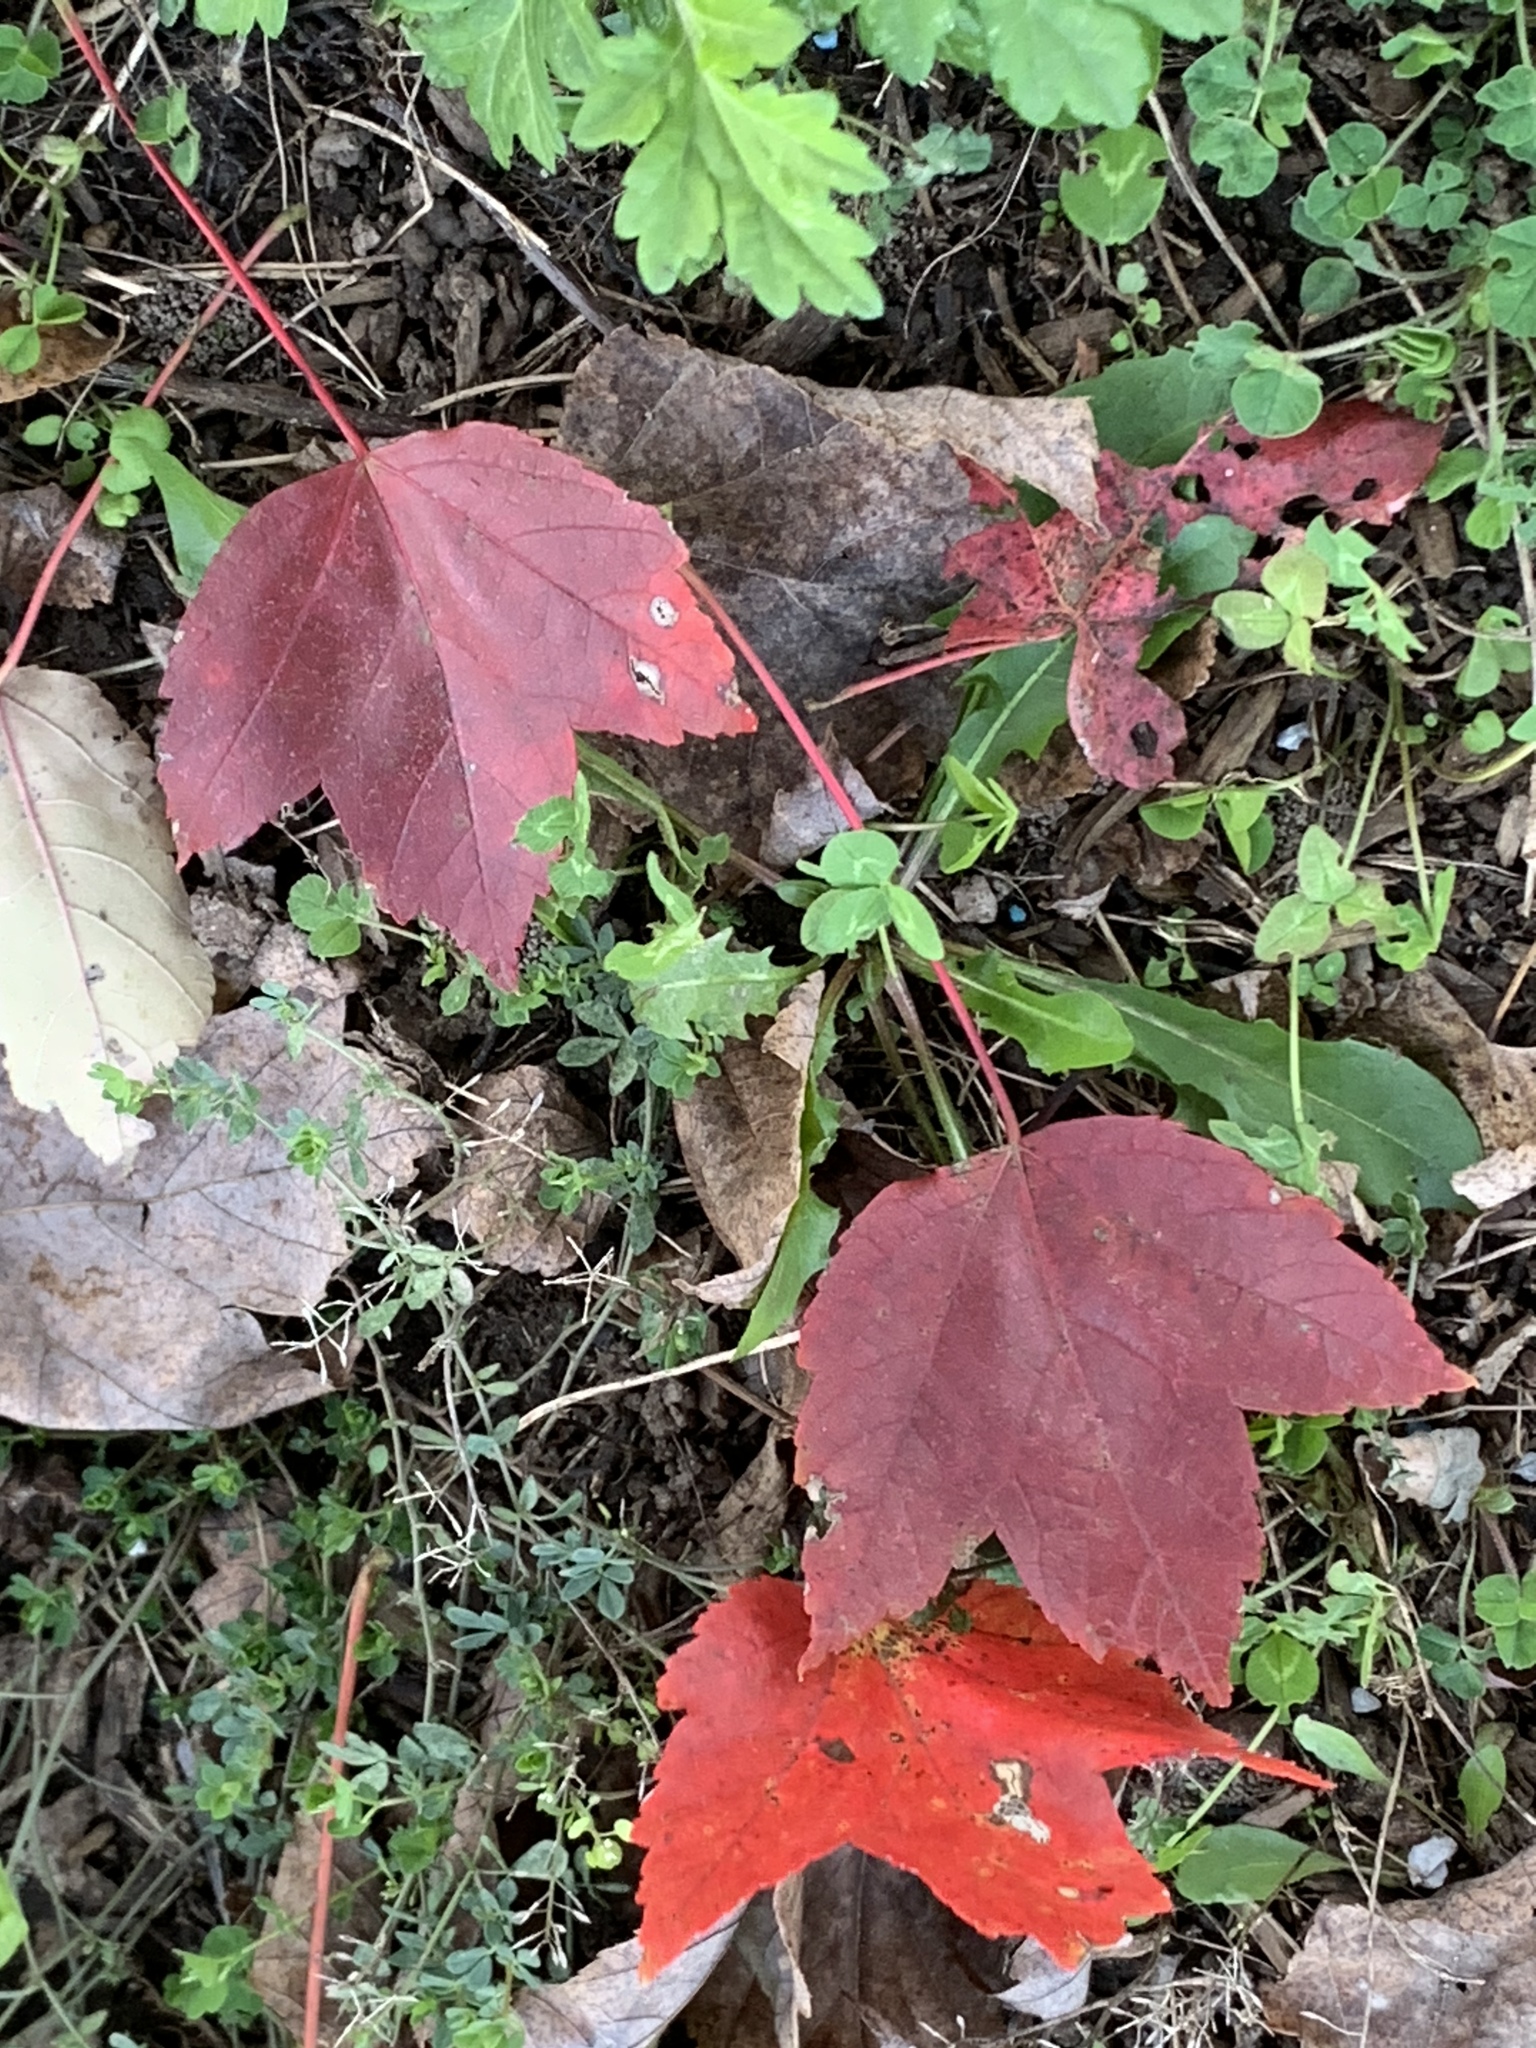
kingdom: Plantae
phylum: Tracheophyta
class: Magnoliopsida
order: Sapindales
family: Sapindaceae
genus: Acer
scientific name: Acer rubrum
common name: Red maple
